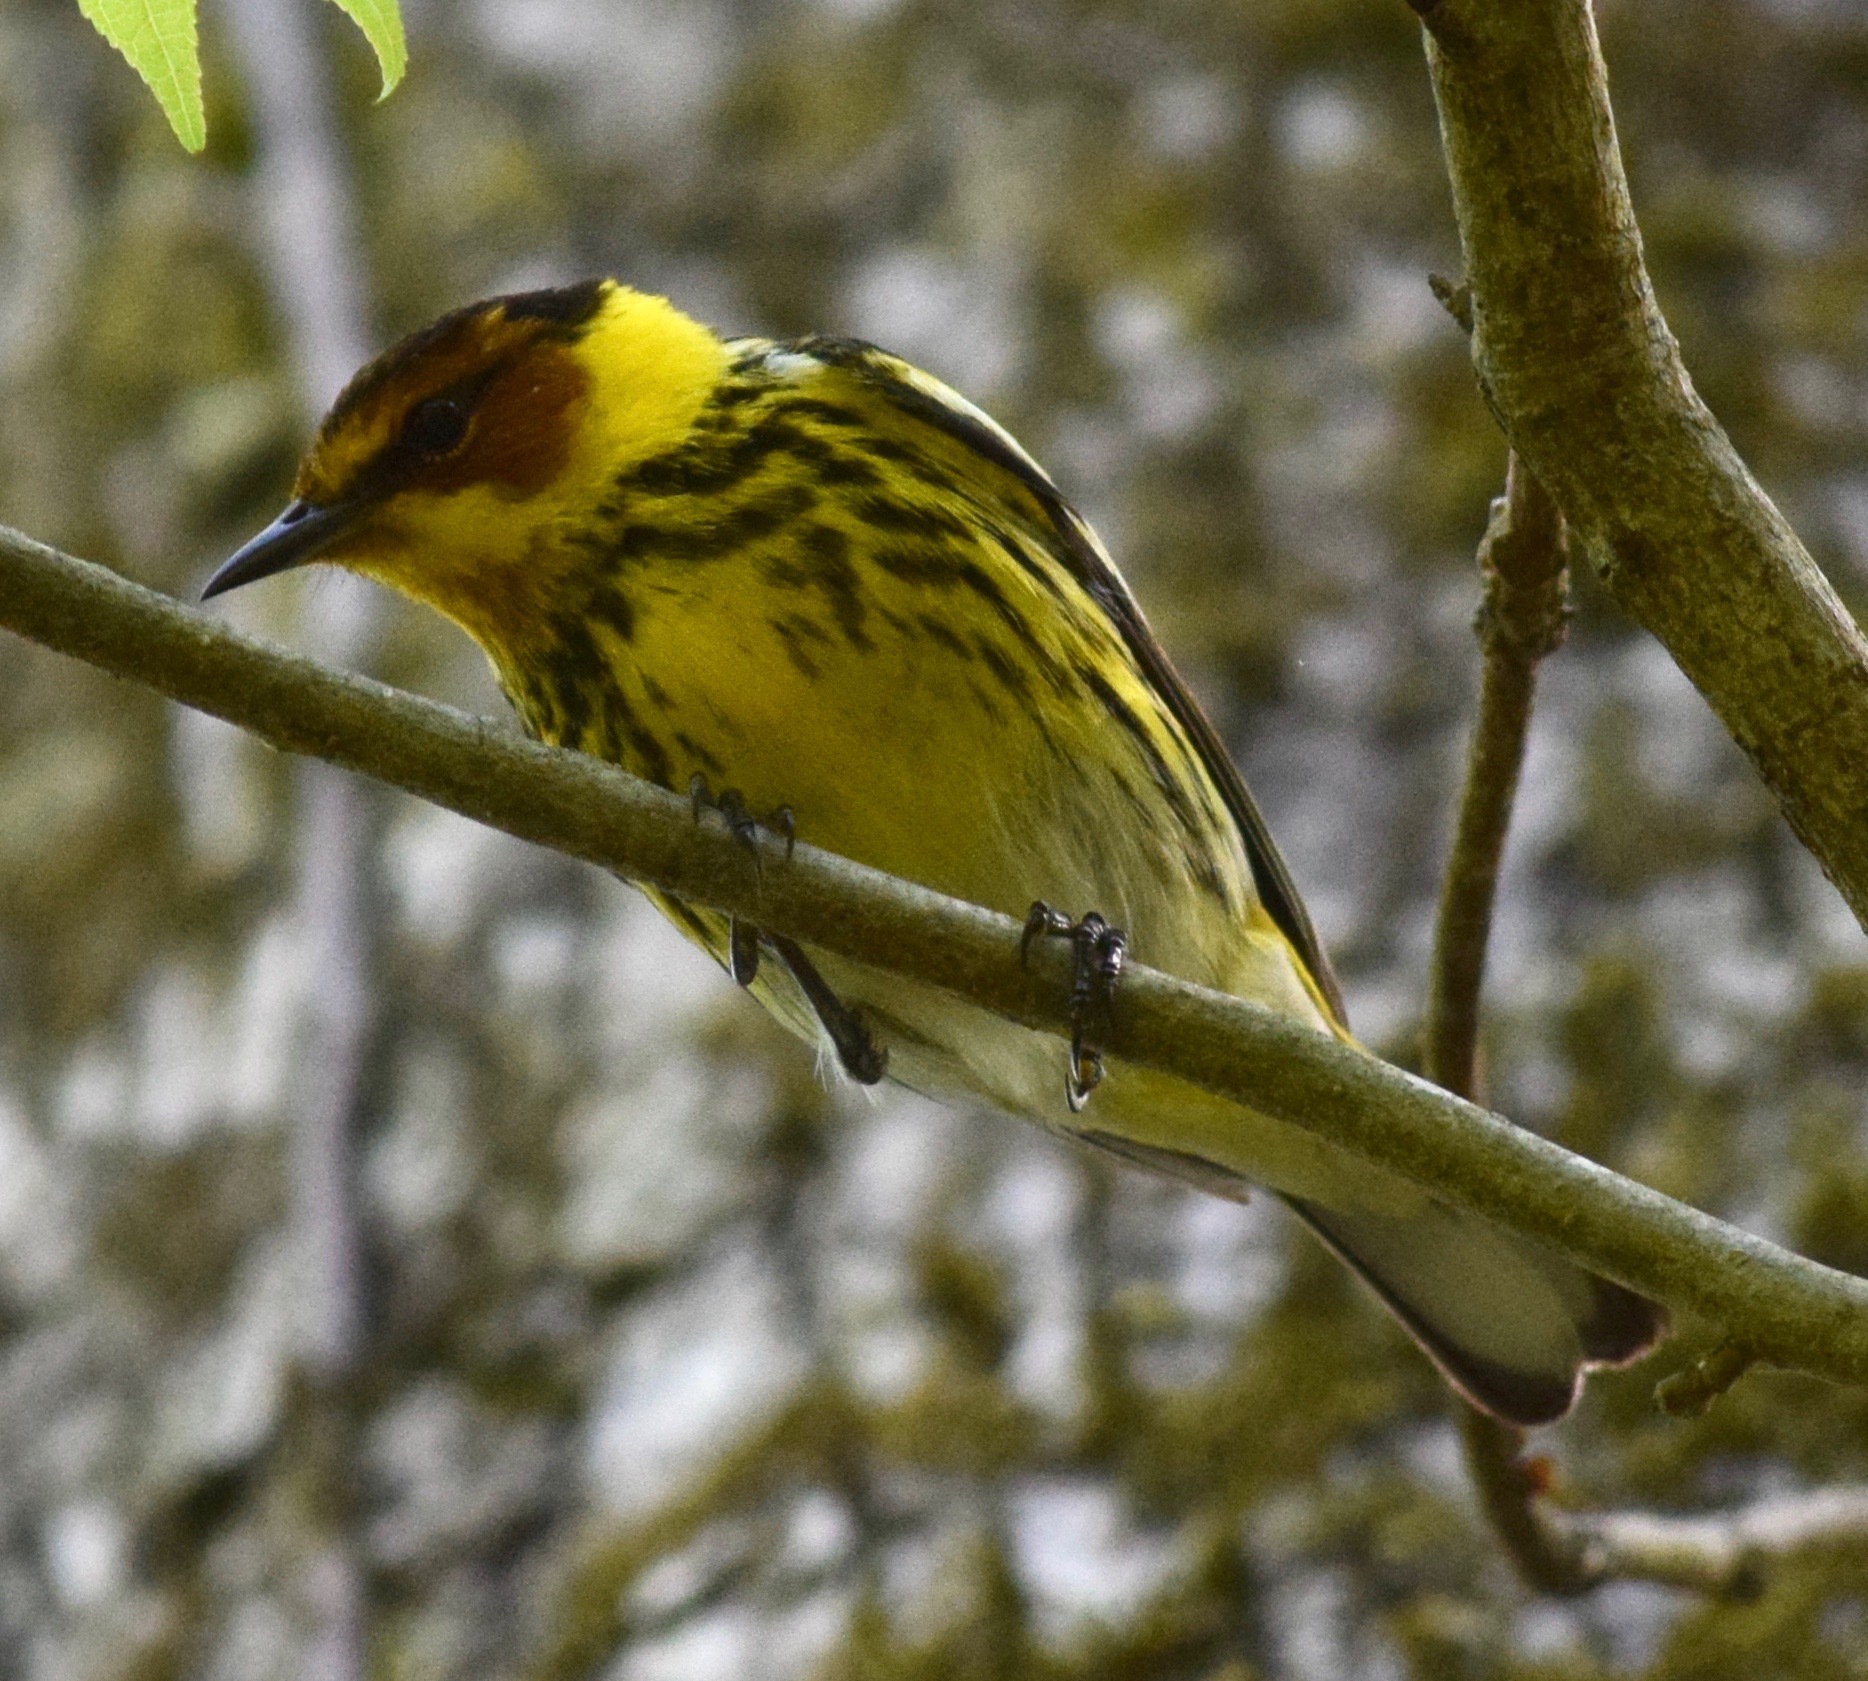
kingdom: Animalia
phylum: Chordata
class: Aves
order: Passeriformes
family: Parulidae
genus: Setophaga
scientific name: Setophaga tigrina
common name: Cape may warbler
